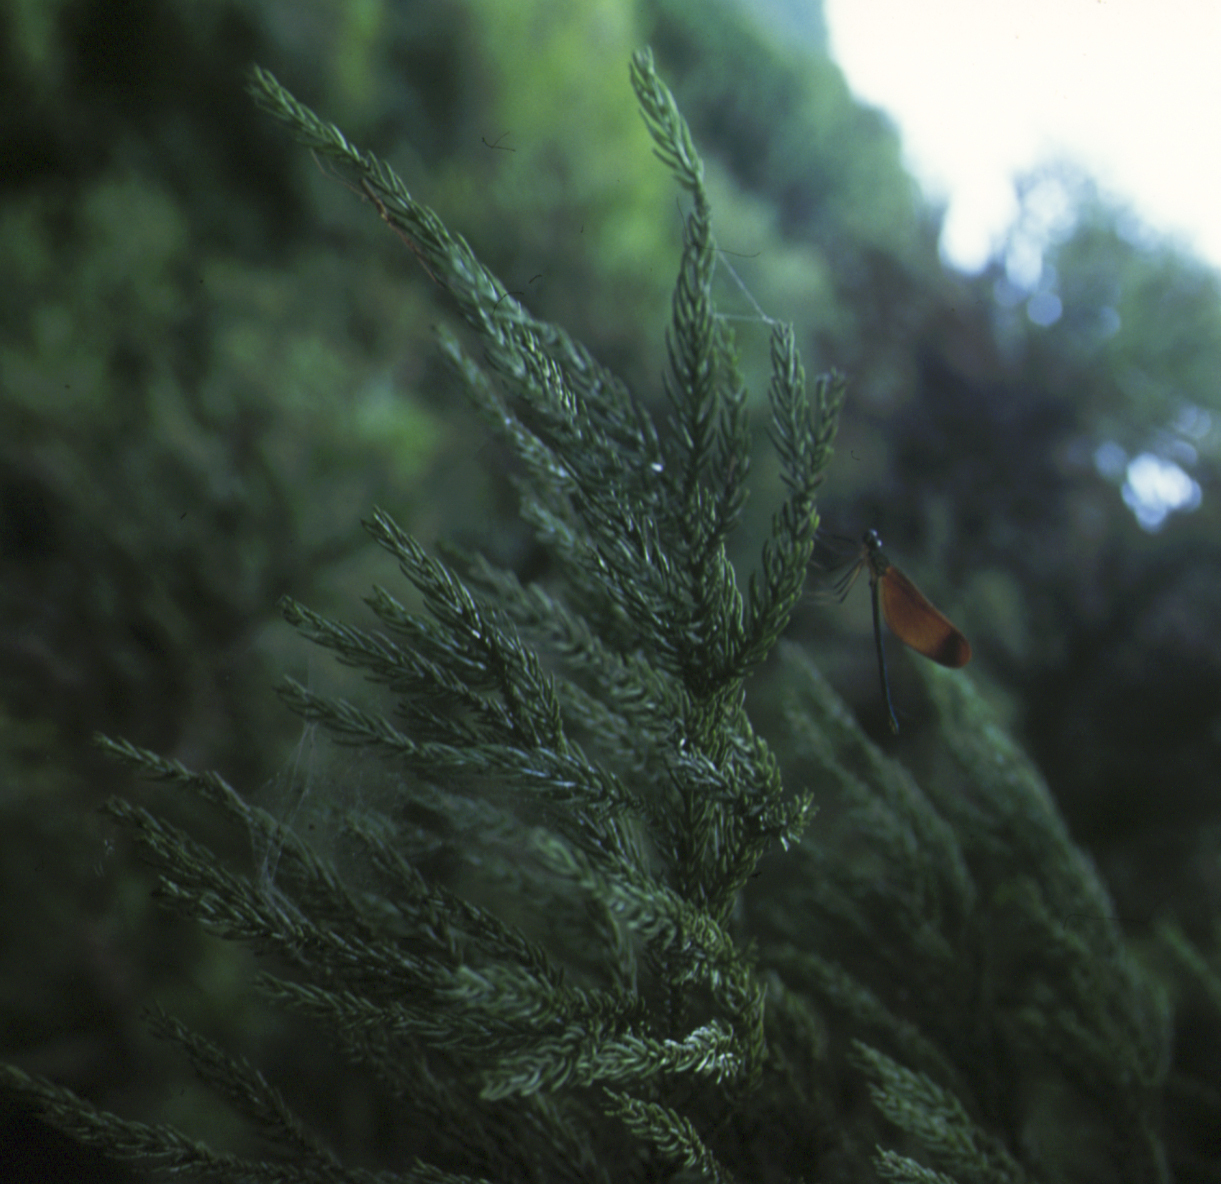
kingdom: Plantae
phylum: Tracheophyta
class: Pinopsida
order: Pinales
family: Cupressaceae
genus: Cryptomeria
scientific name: Cryptomeria japonica
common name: Japanese cedar
